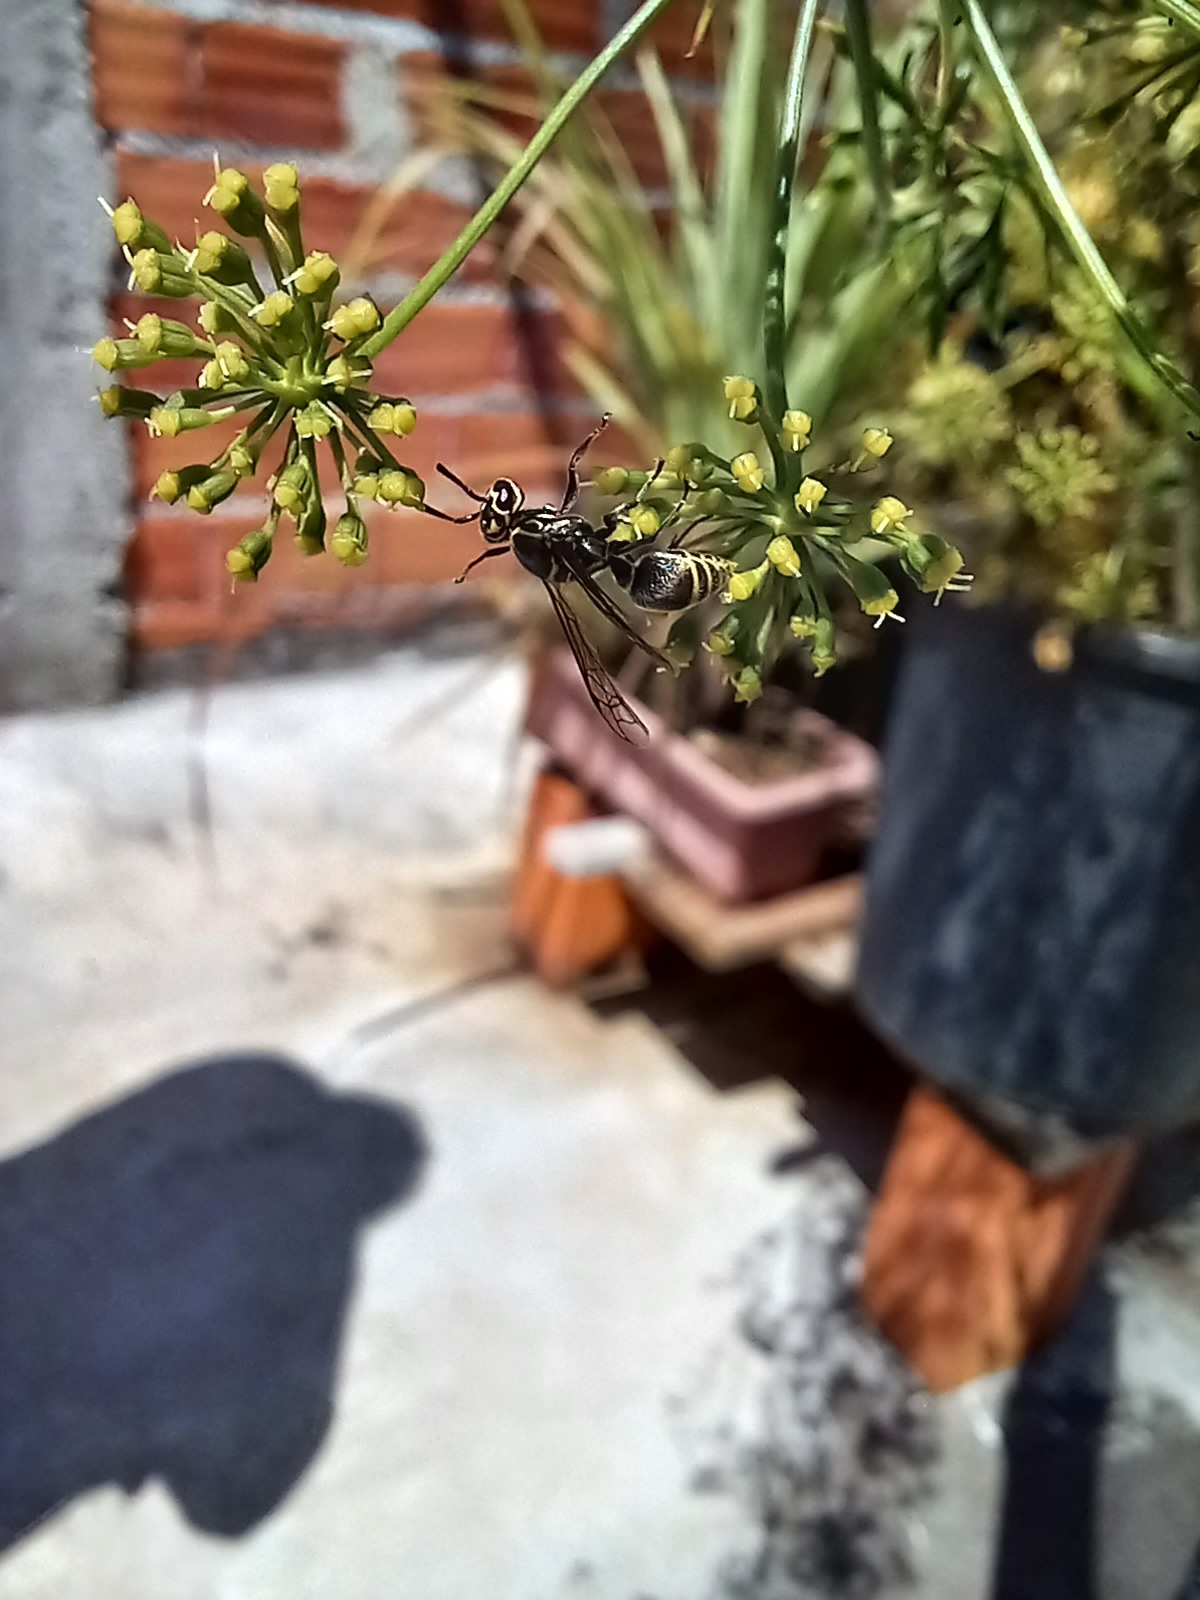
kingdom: Animalia
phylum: Arthropoda
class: Insecta
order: Hymenoptera
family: Vespidae
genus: Protonectarina
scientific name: Protonectarina sylveirae
